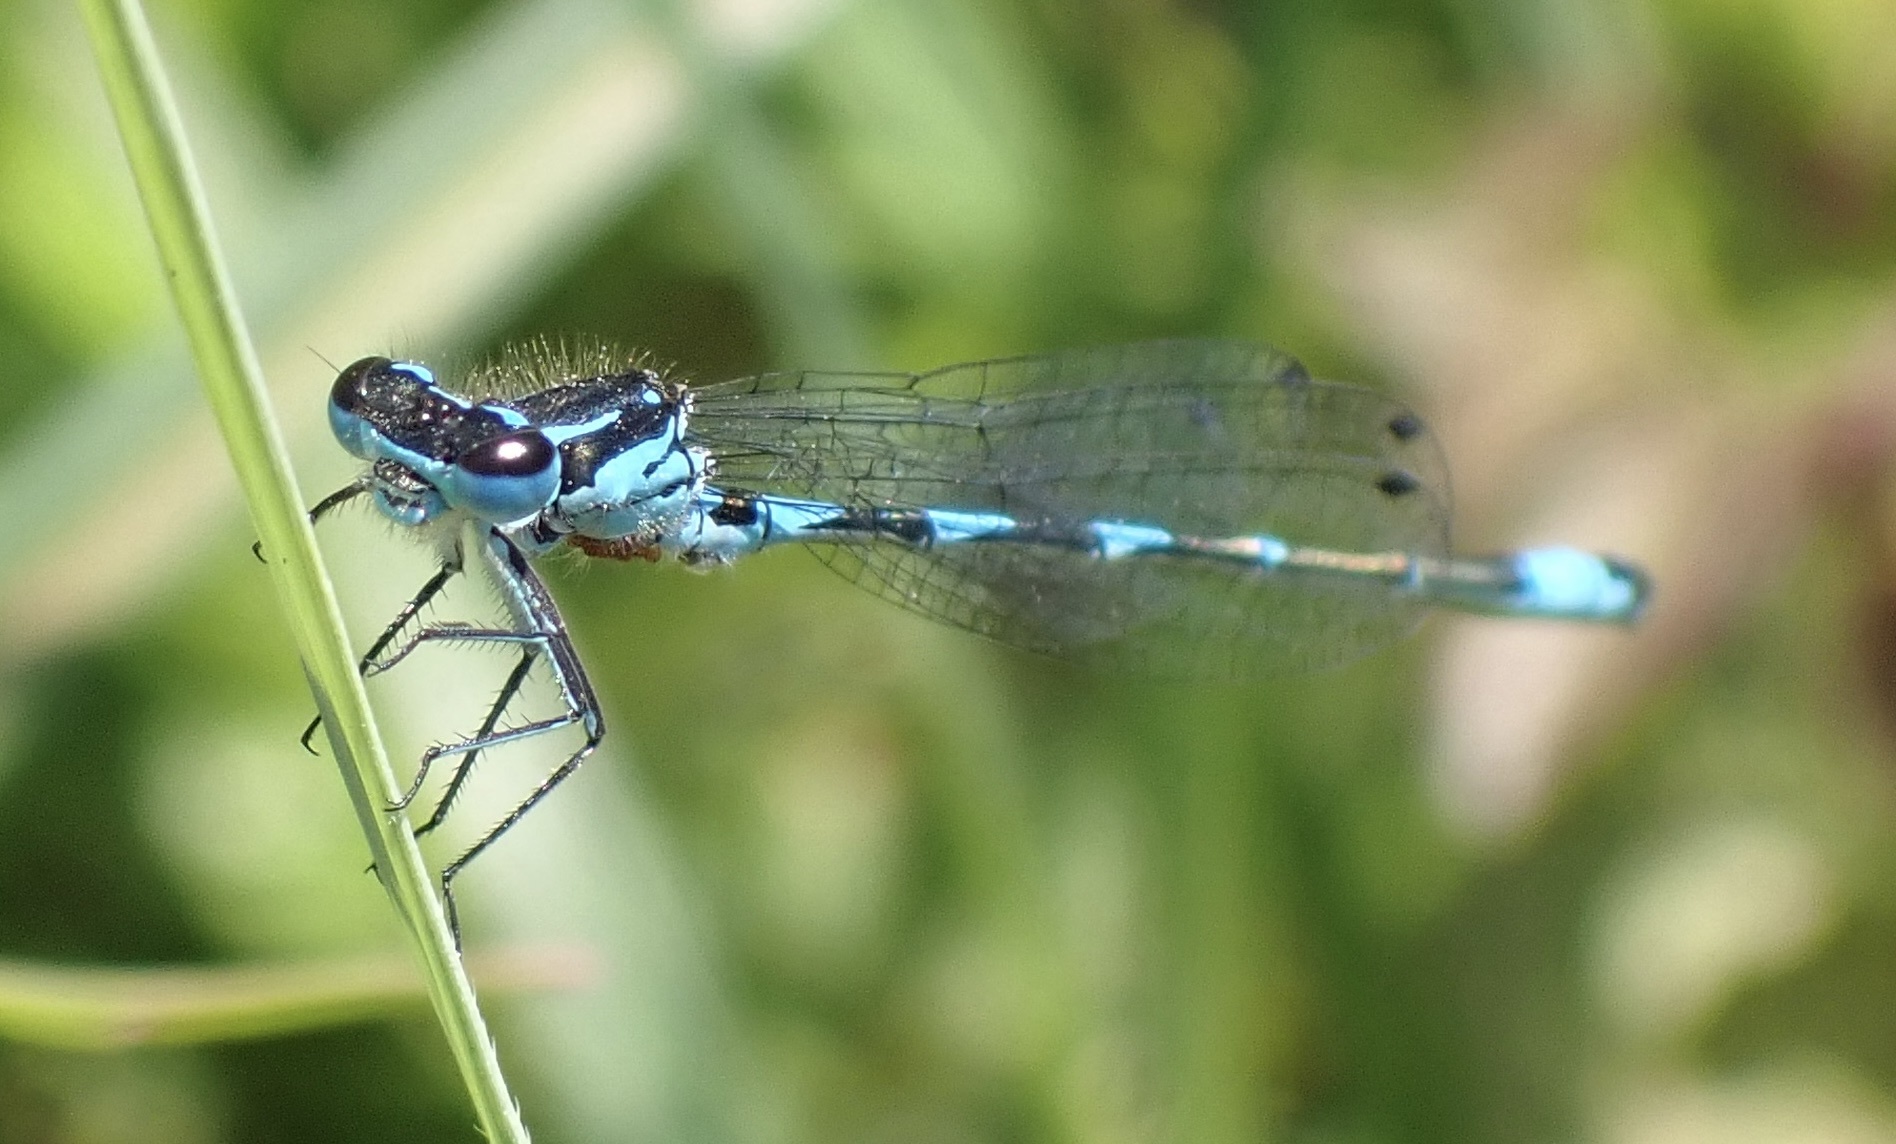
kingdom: Animalia
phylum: Arthropoda
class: Insecta
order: Odonata
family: Coenagrionidae
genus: Coenagrion
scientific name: Coenagrion pulchellum
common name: Variable bluet
